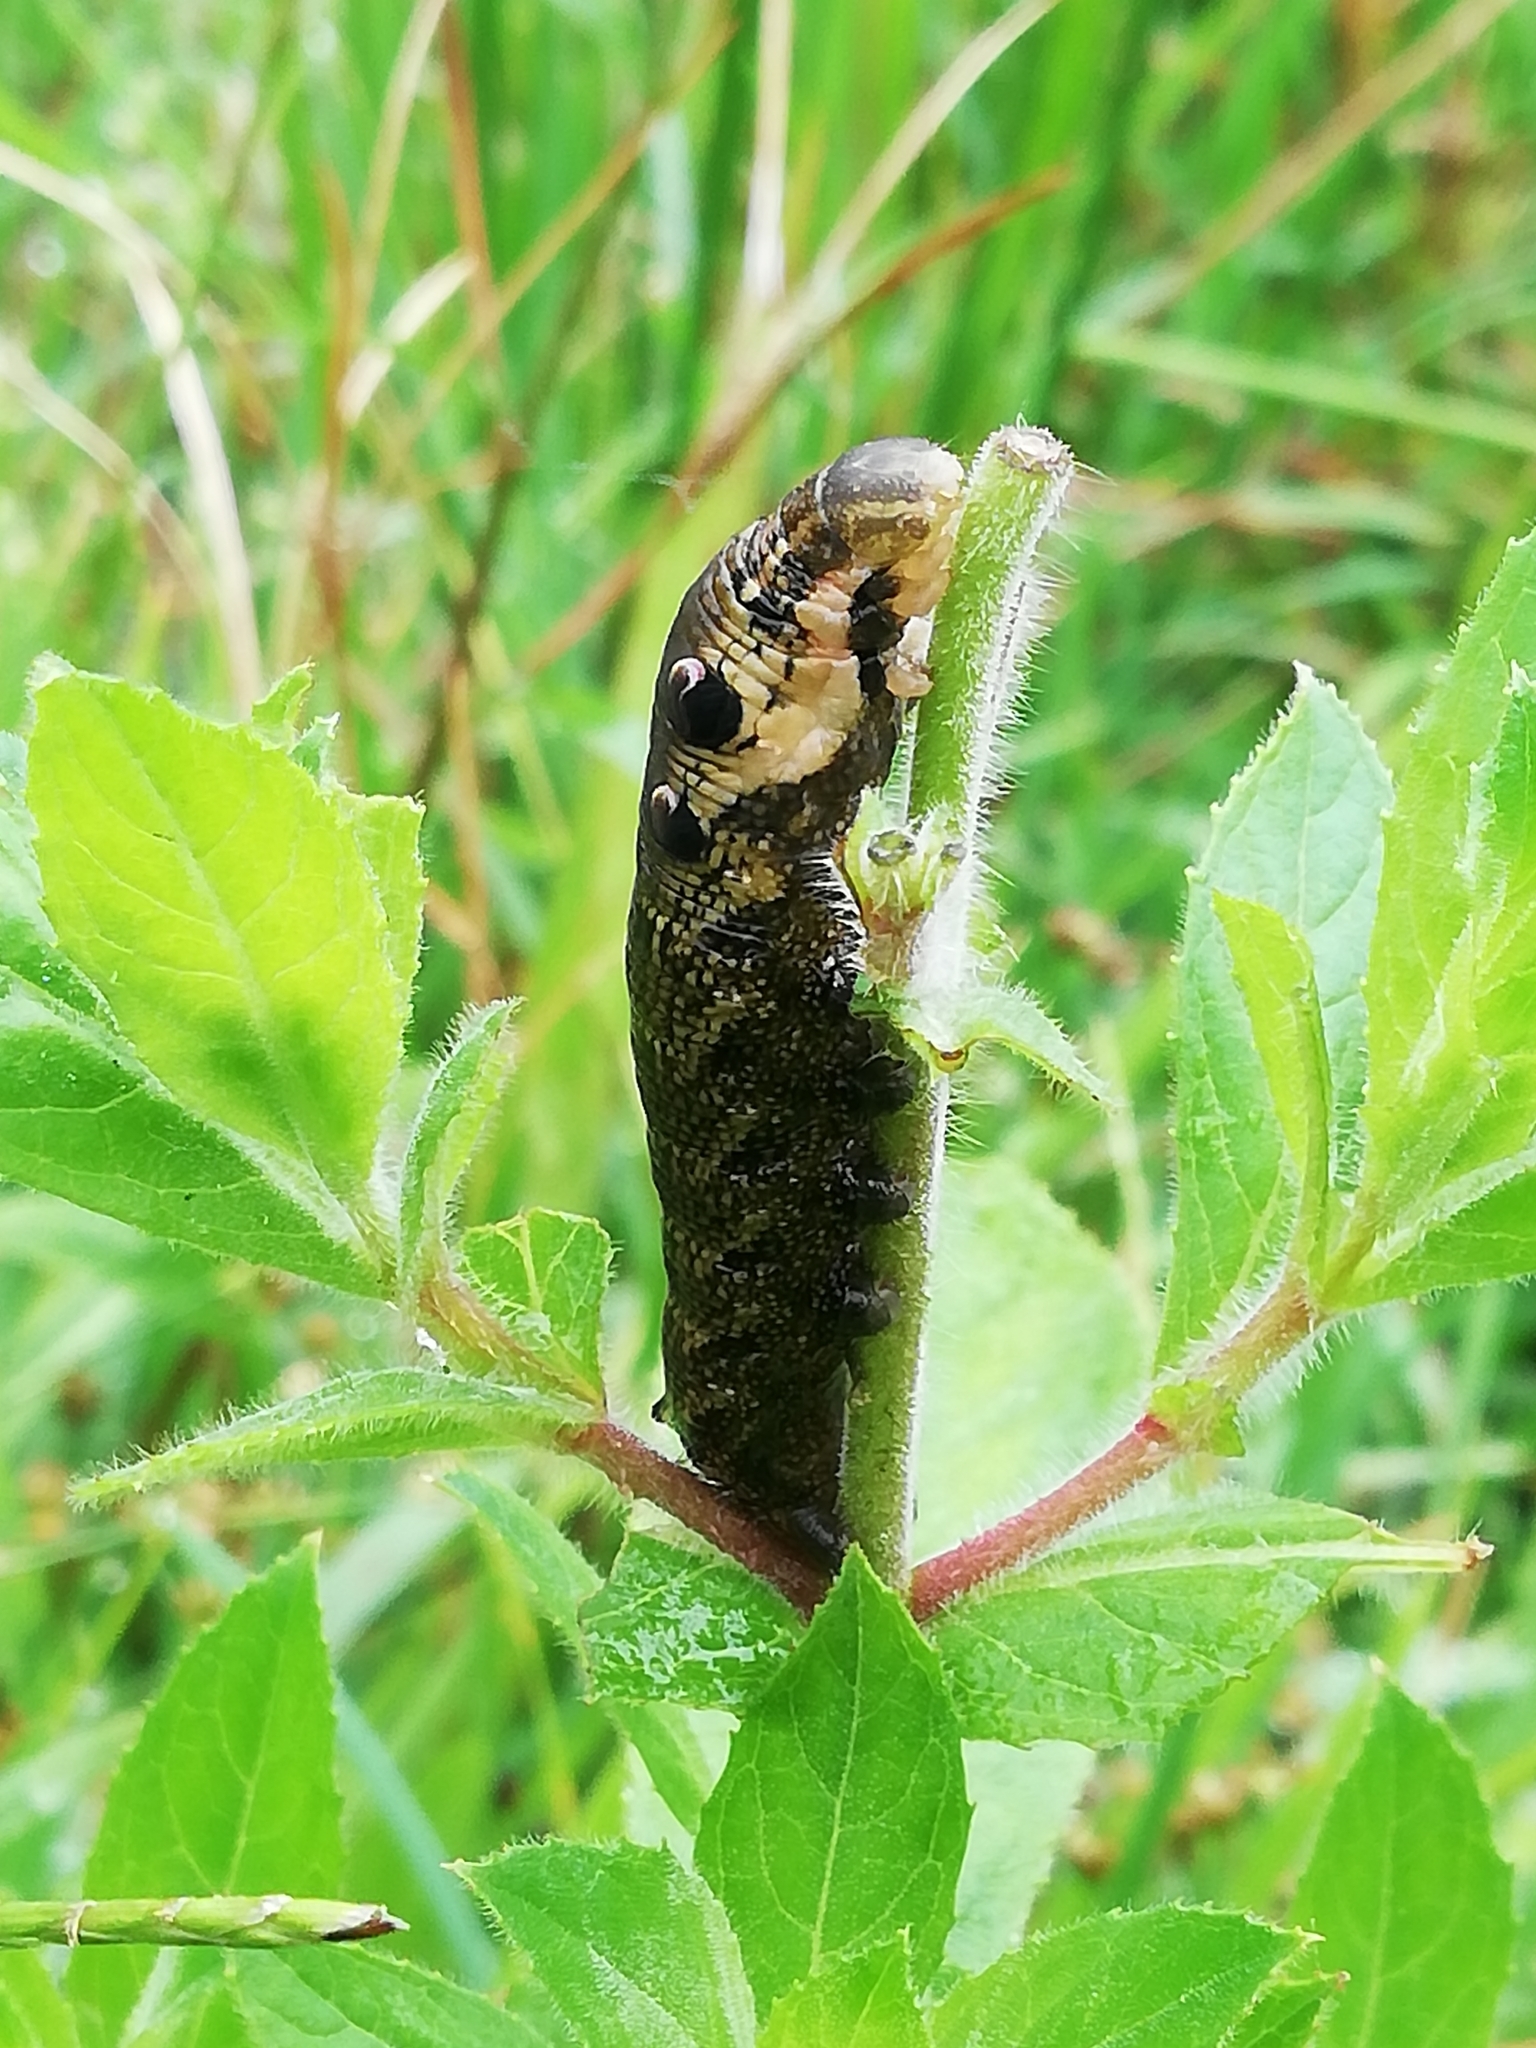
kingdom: Animalia
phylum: Arthropoda
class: Insecta
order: Lepidoptera
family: Sphingidae
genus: Deilephila
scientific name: Deilephila elpenor
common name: Elephant hawk-moth
